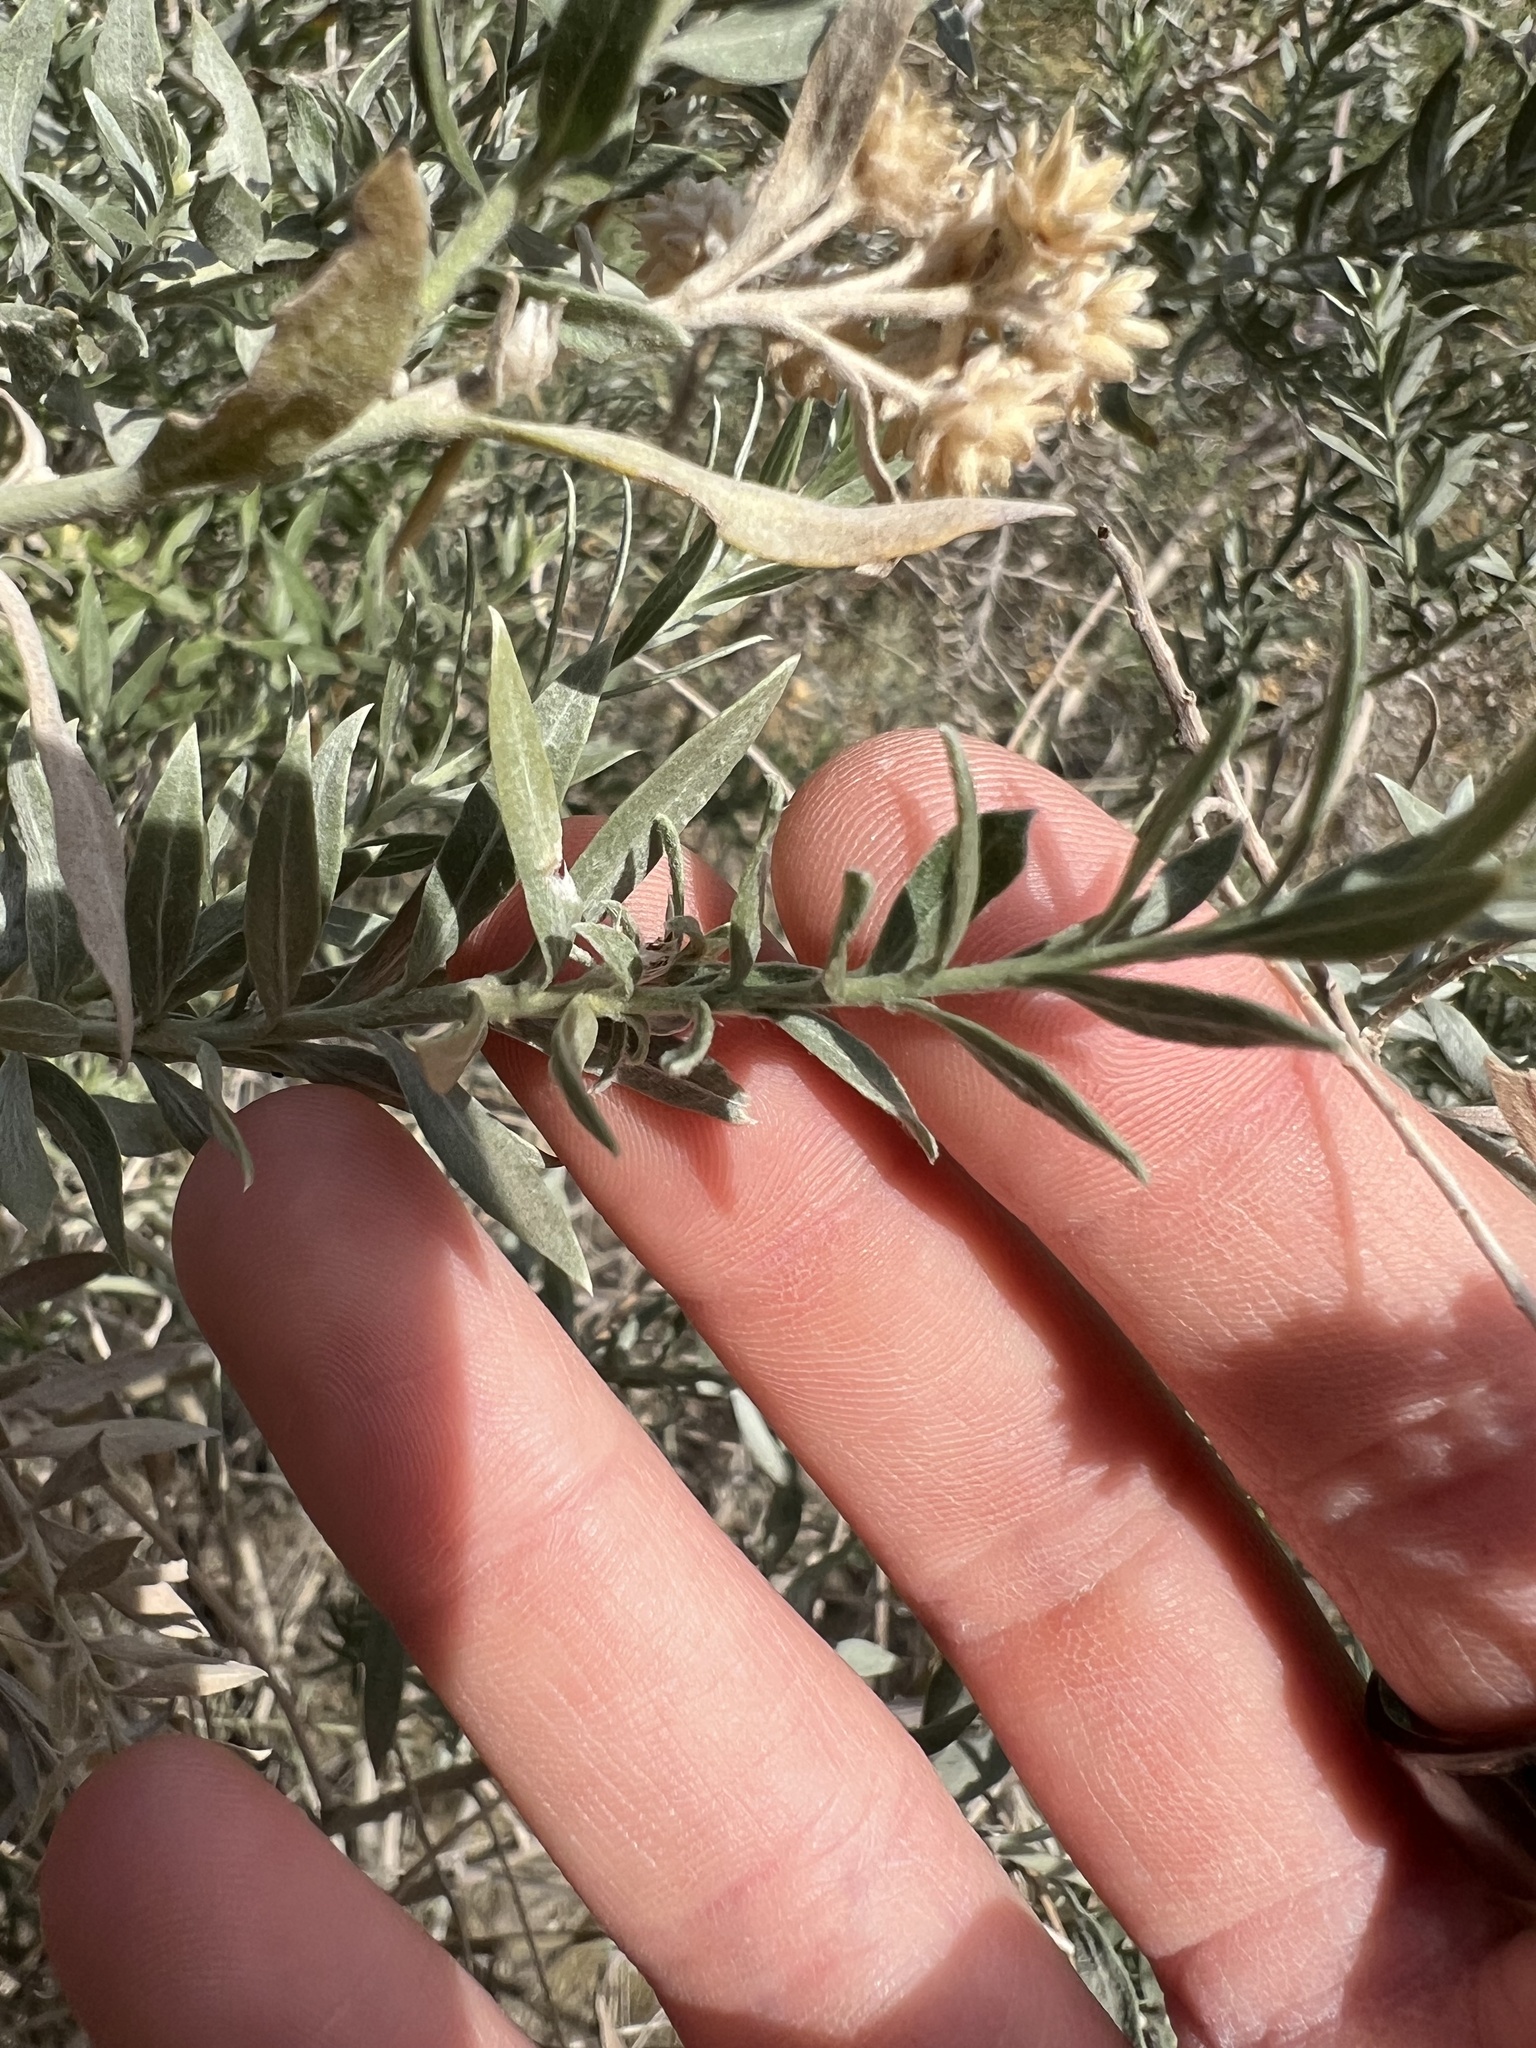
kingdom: Plantae
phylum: Tracheophyta
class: Magnoliopsida
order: Asterales
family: Asteraceae
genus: Pluchea
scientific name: Pluchea sericea
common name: Arrow-weed
